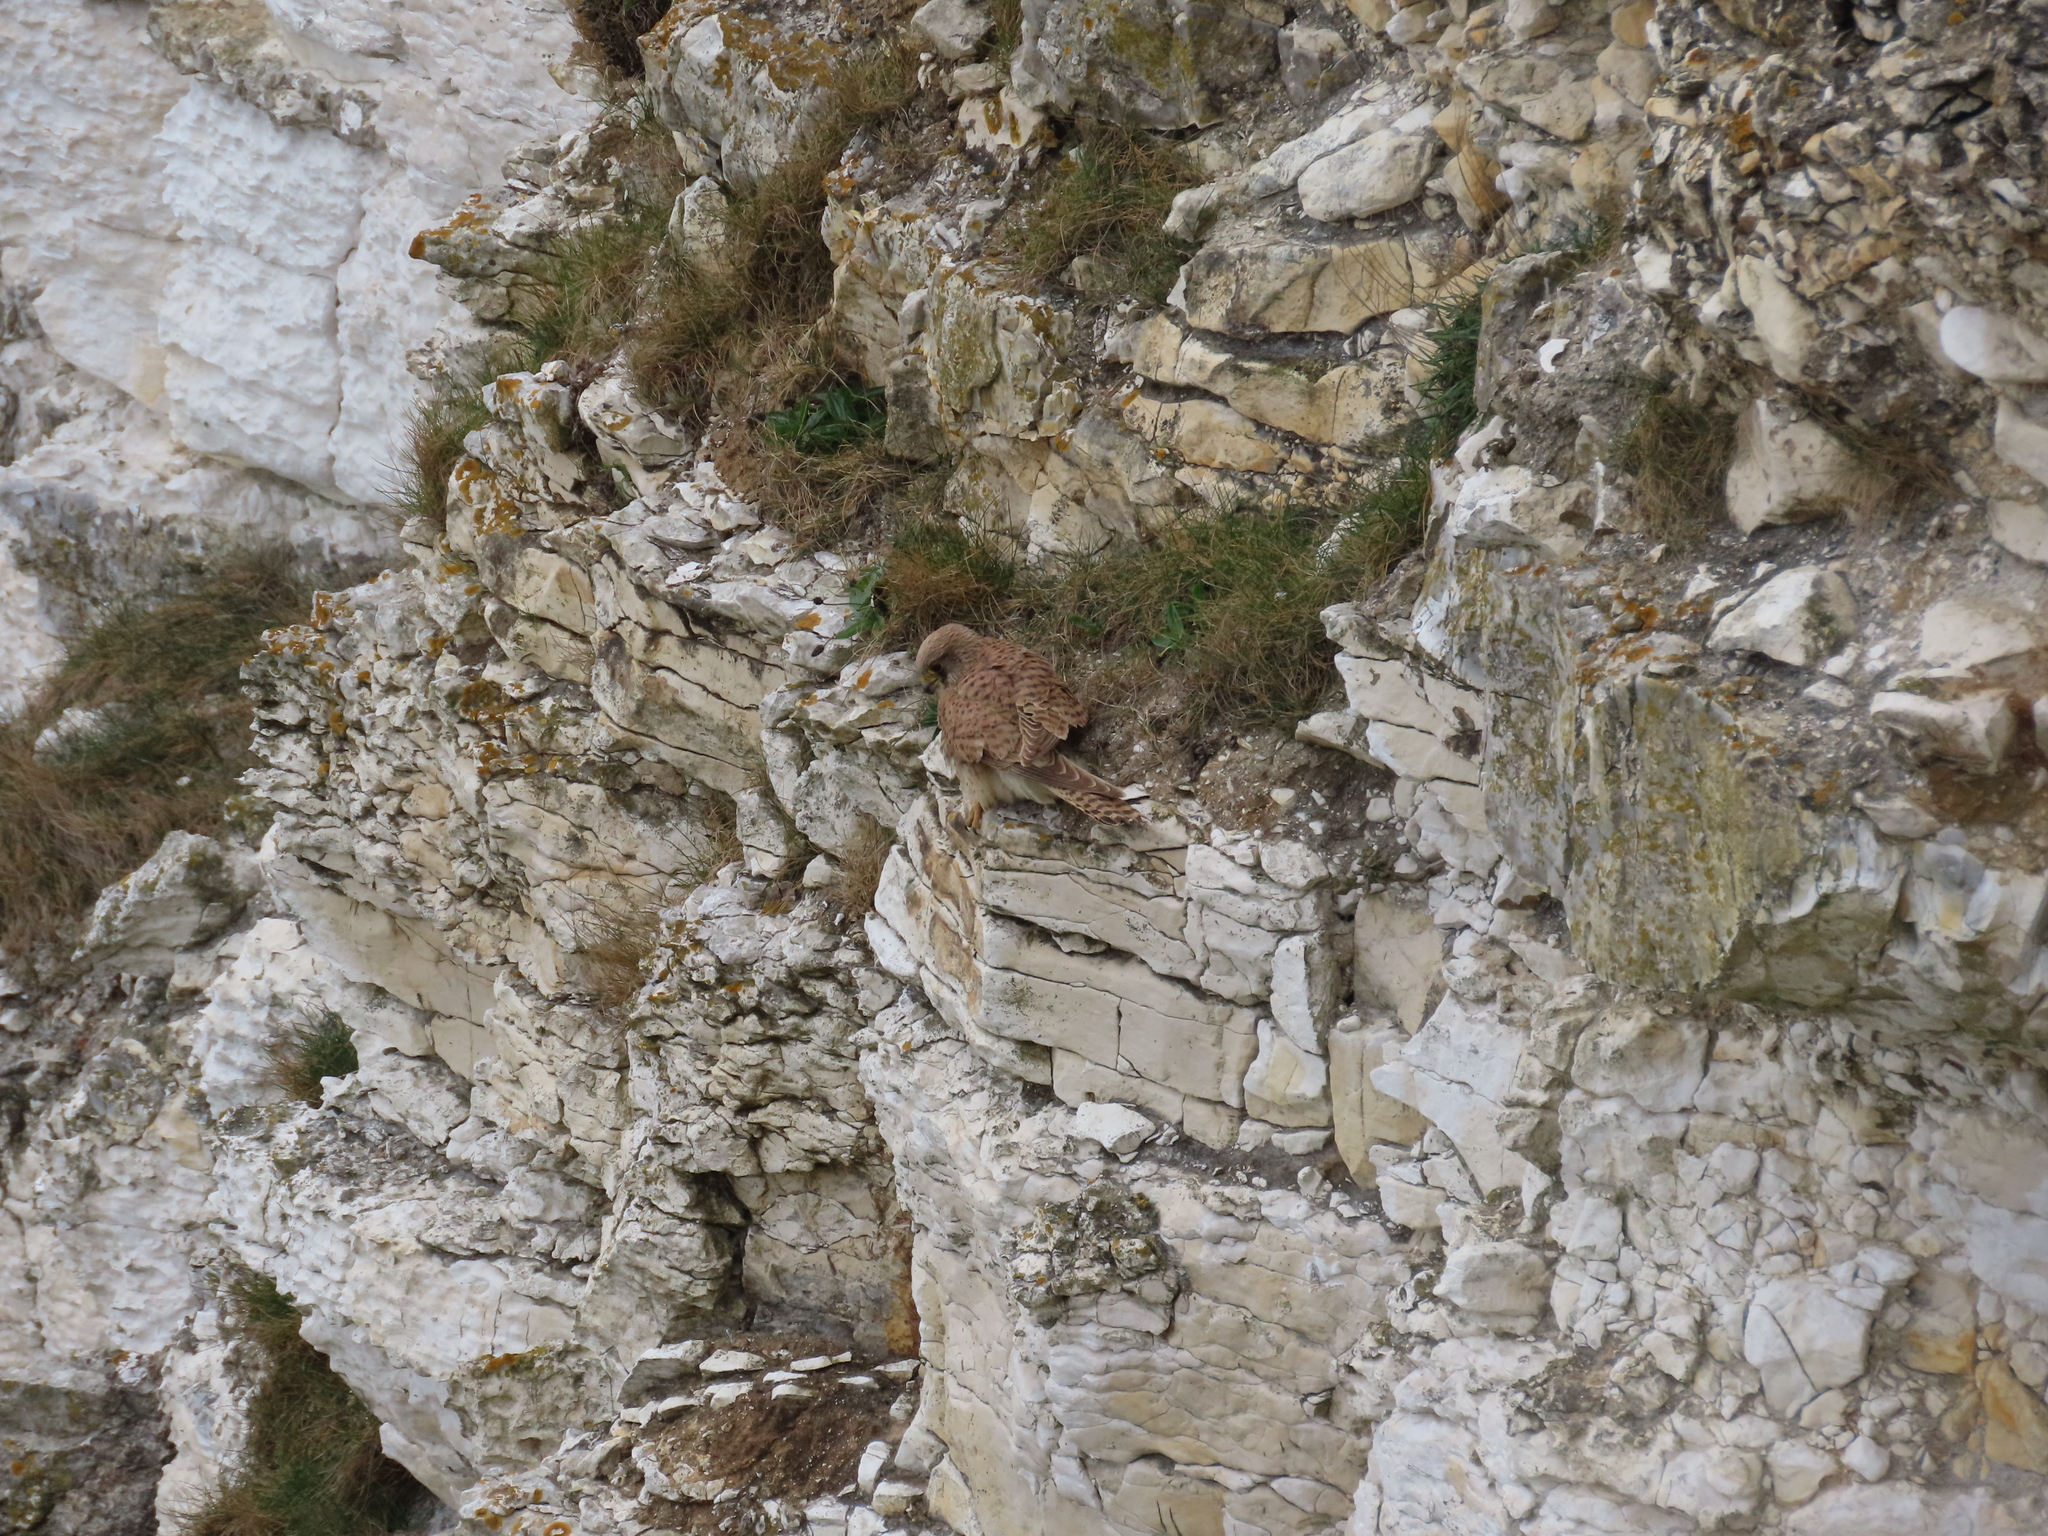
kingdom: Animalia
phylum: Chordata
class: Aves
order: Falconiformes
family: Falconidae
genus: Falco
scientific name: Falco tinnunculus
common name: Common kestrel
